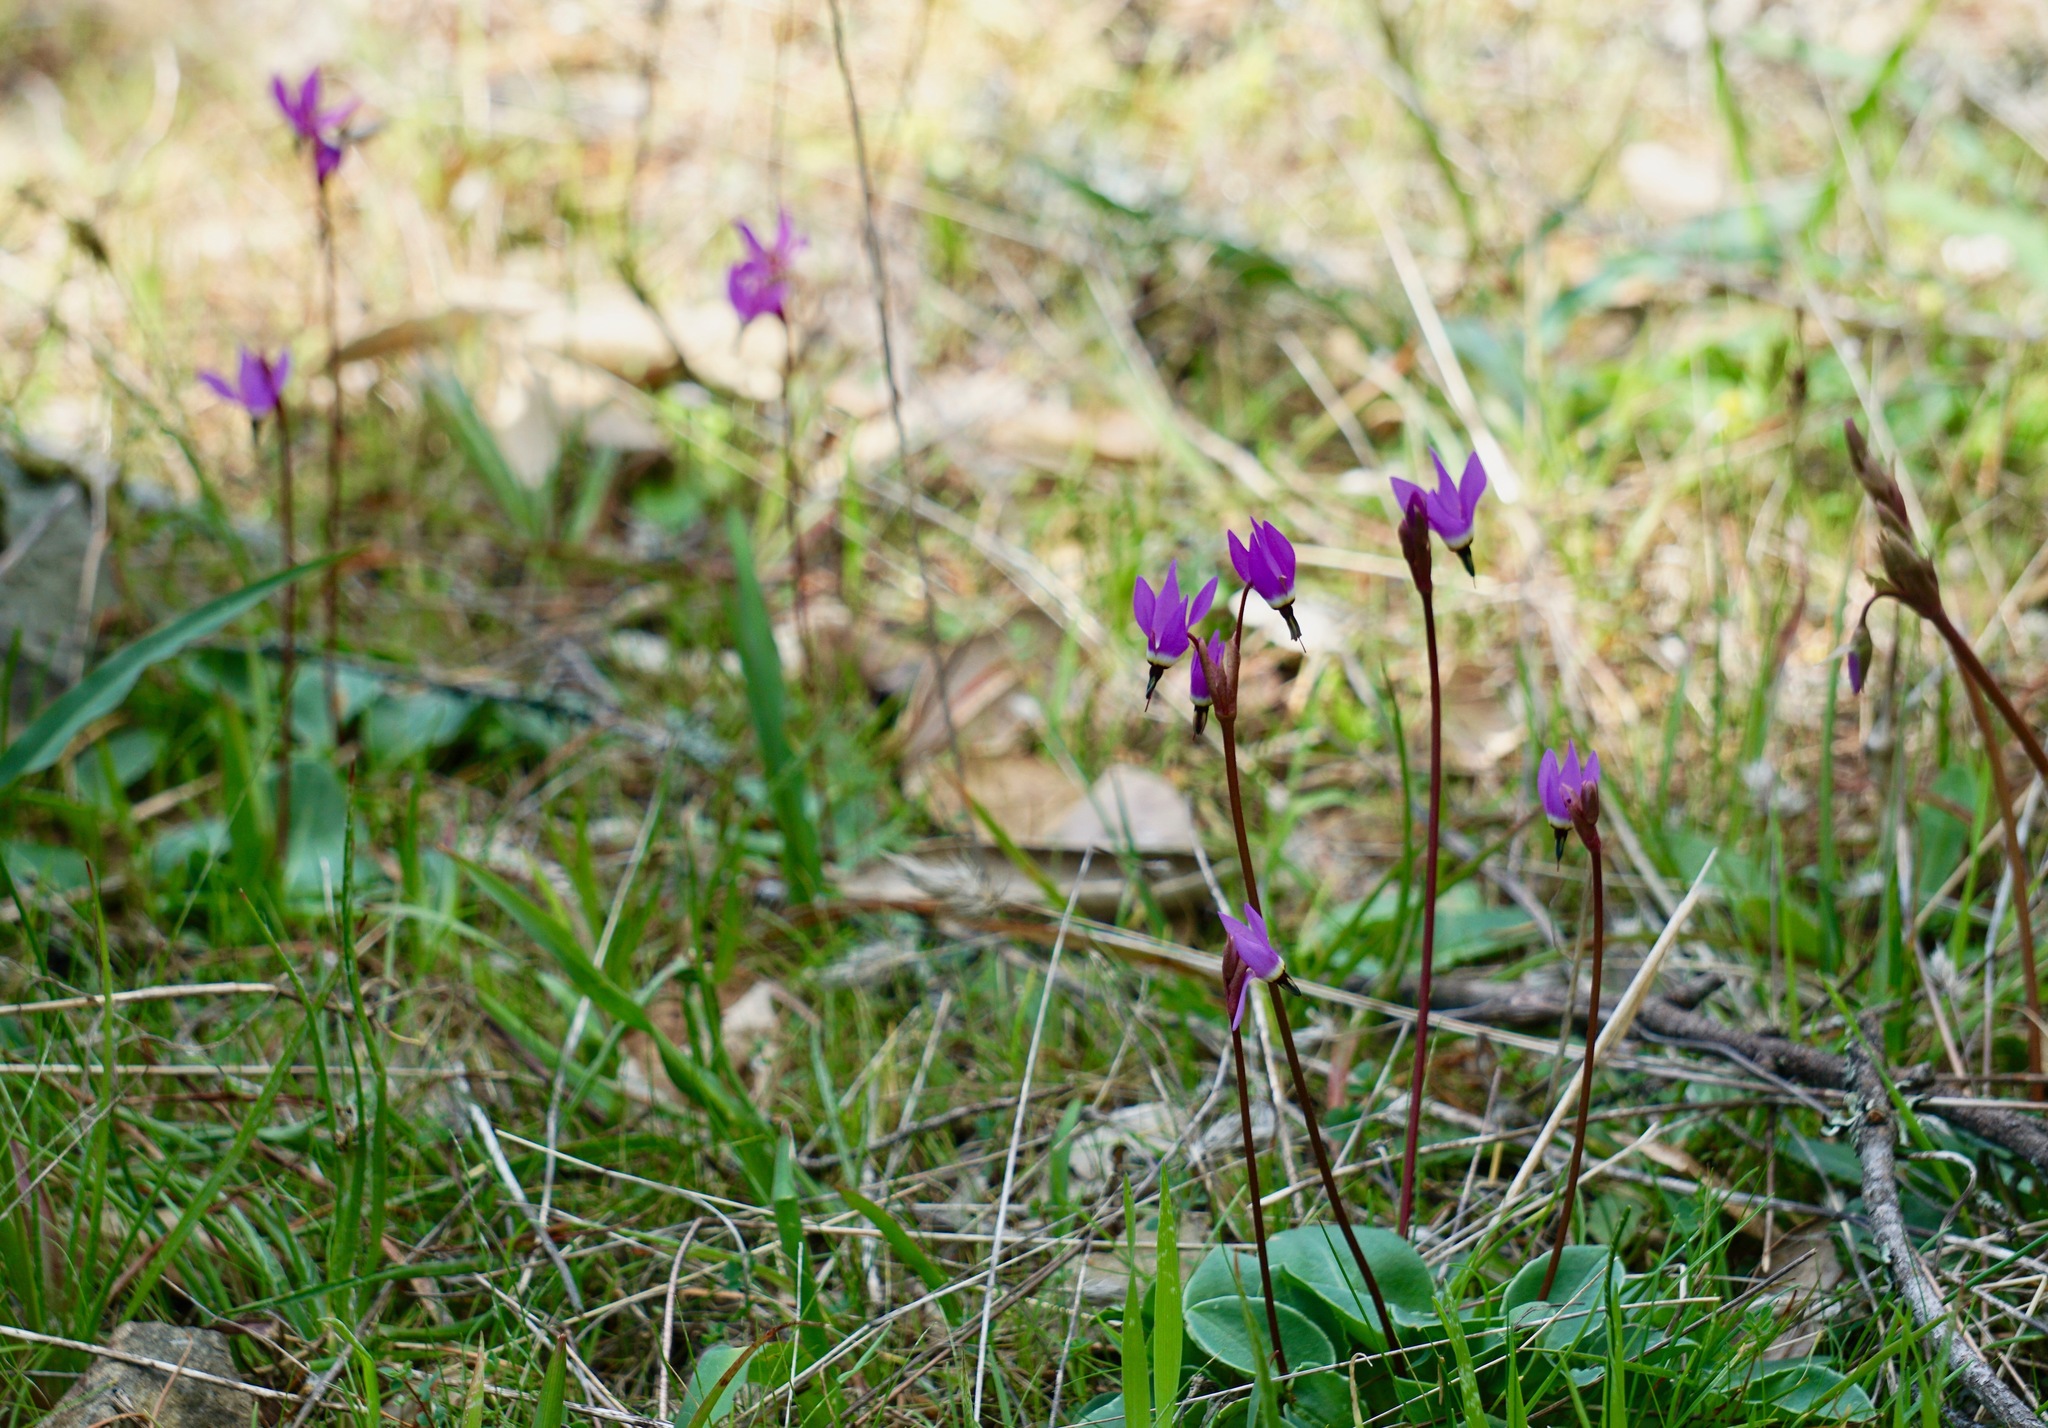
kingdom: Plantae
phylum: Tracheophyta
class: Magnoliopsida
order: Ericales
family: Primulaceae
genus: Dodecatheon
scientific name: Dodecatheon hendersonii
